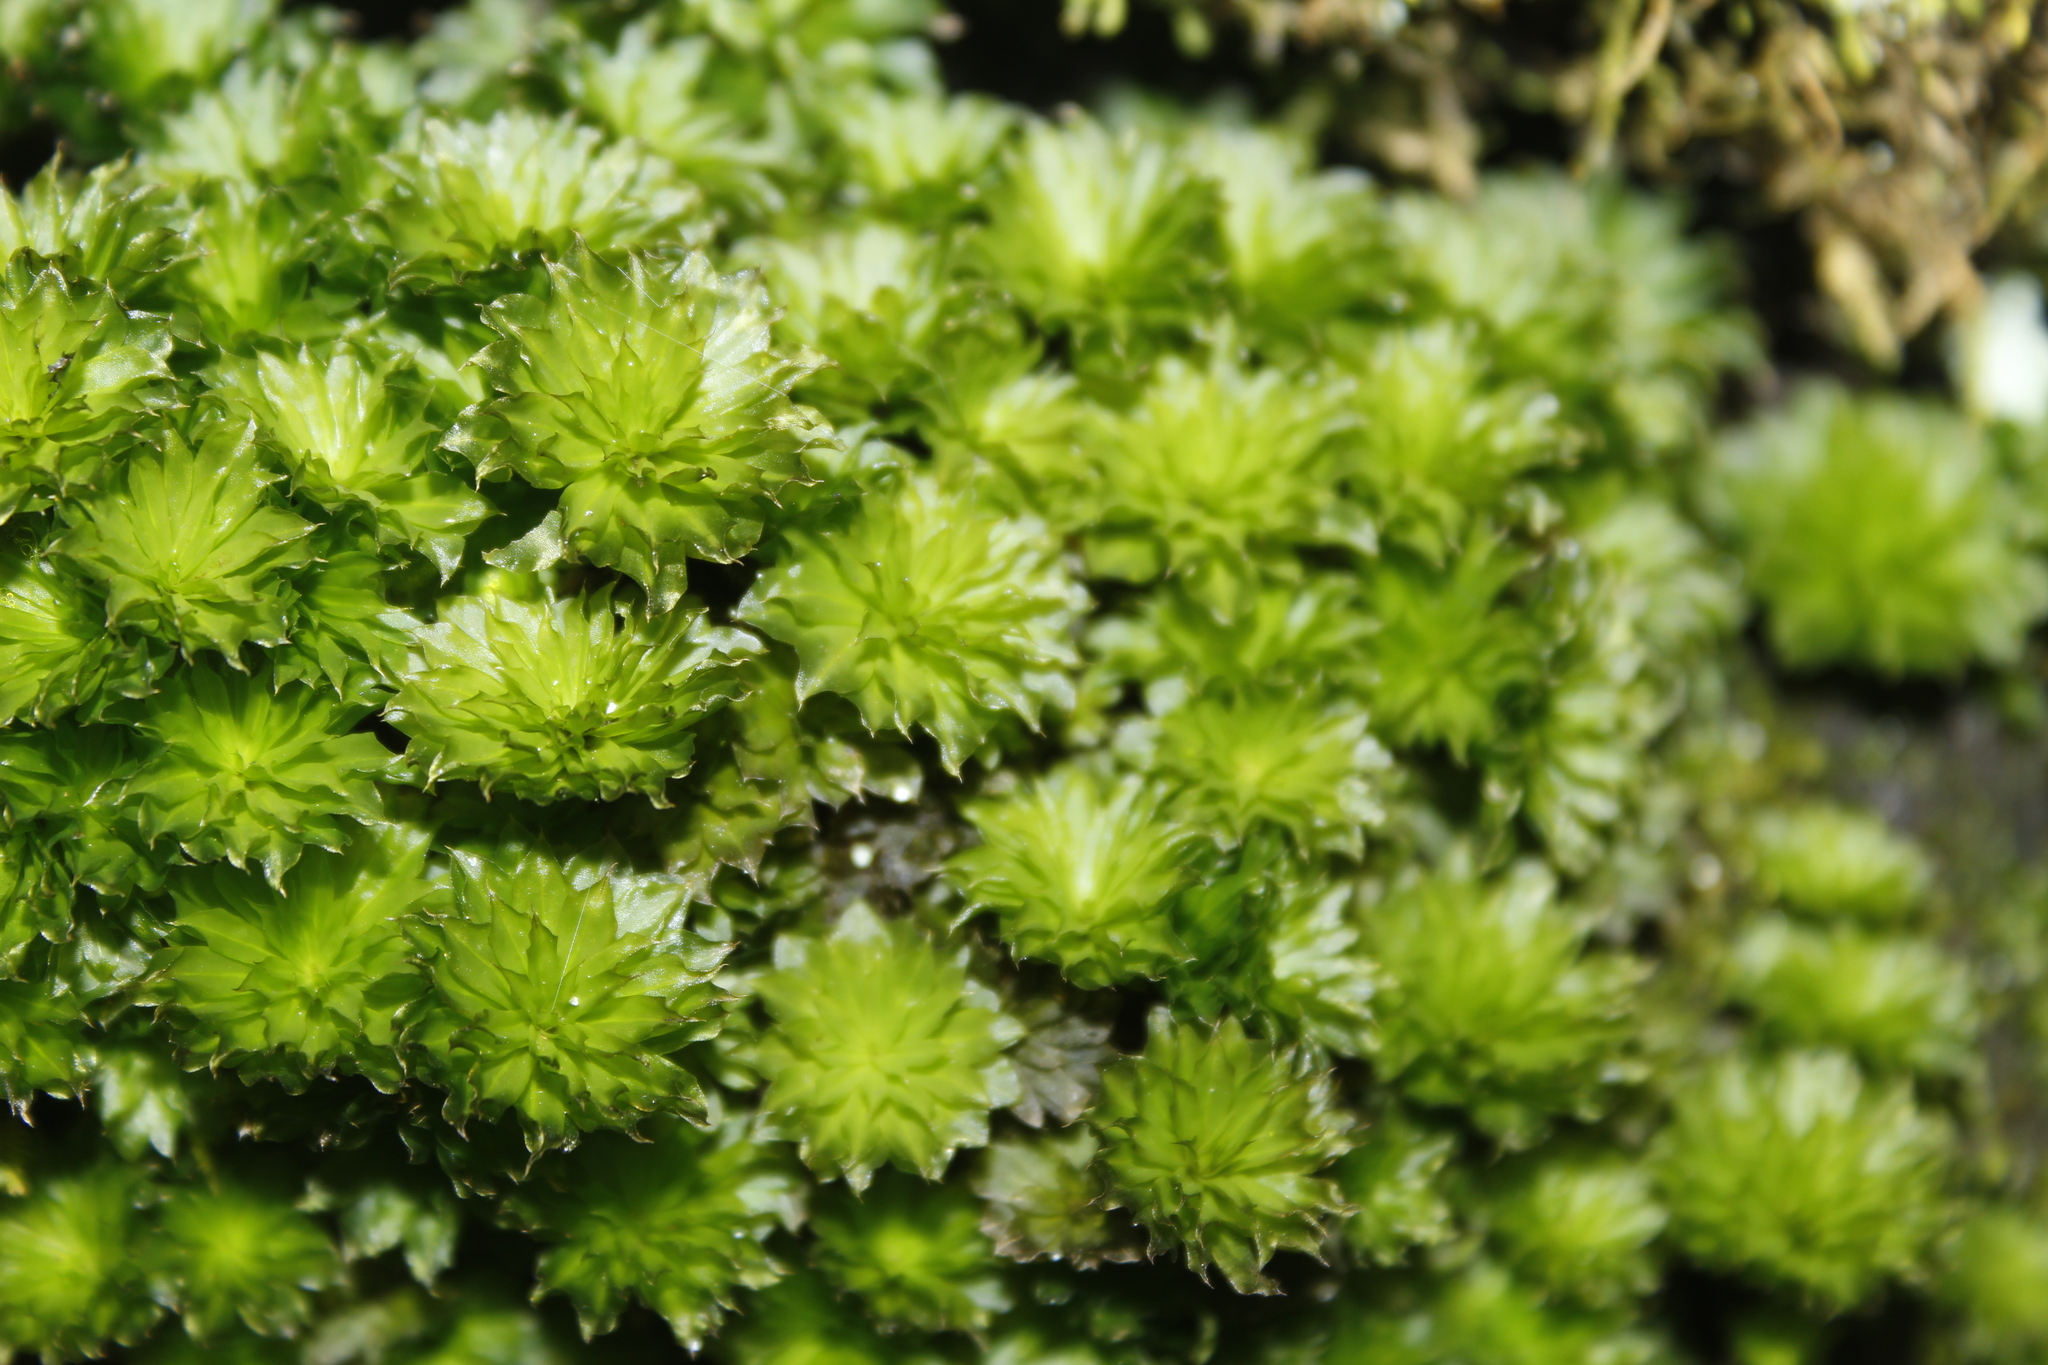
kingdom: Plantae
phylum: Bryophyta
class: Bryopsida
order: Bryales
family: Bryaceae
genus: Rhodobryum
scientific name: Rhodobryum ontariense
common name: Ontario rhodobryum moss
